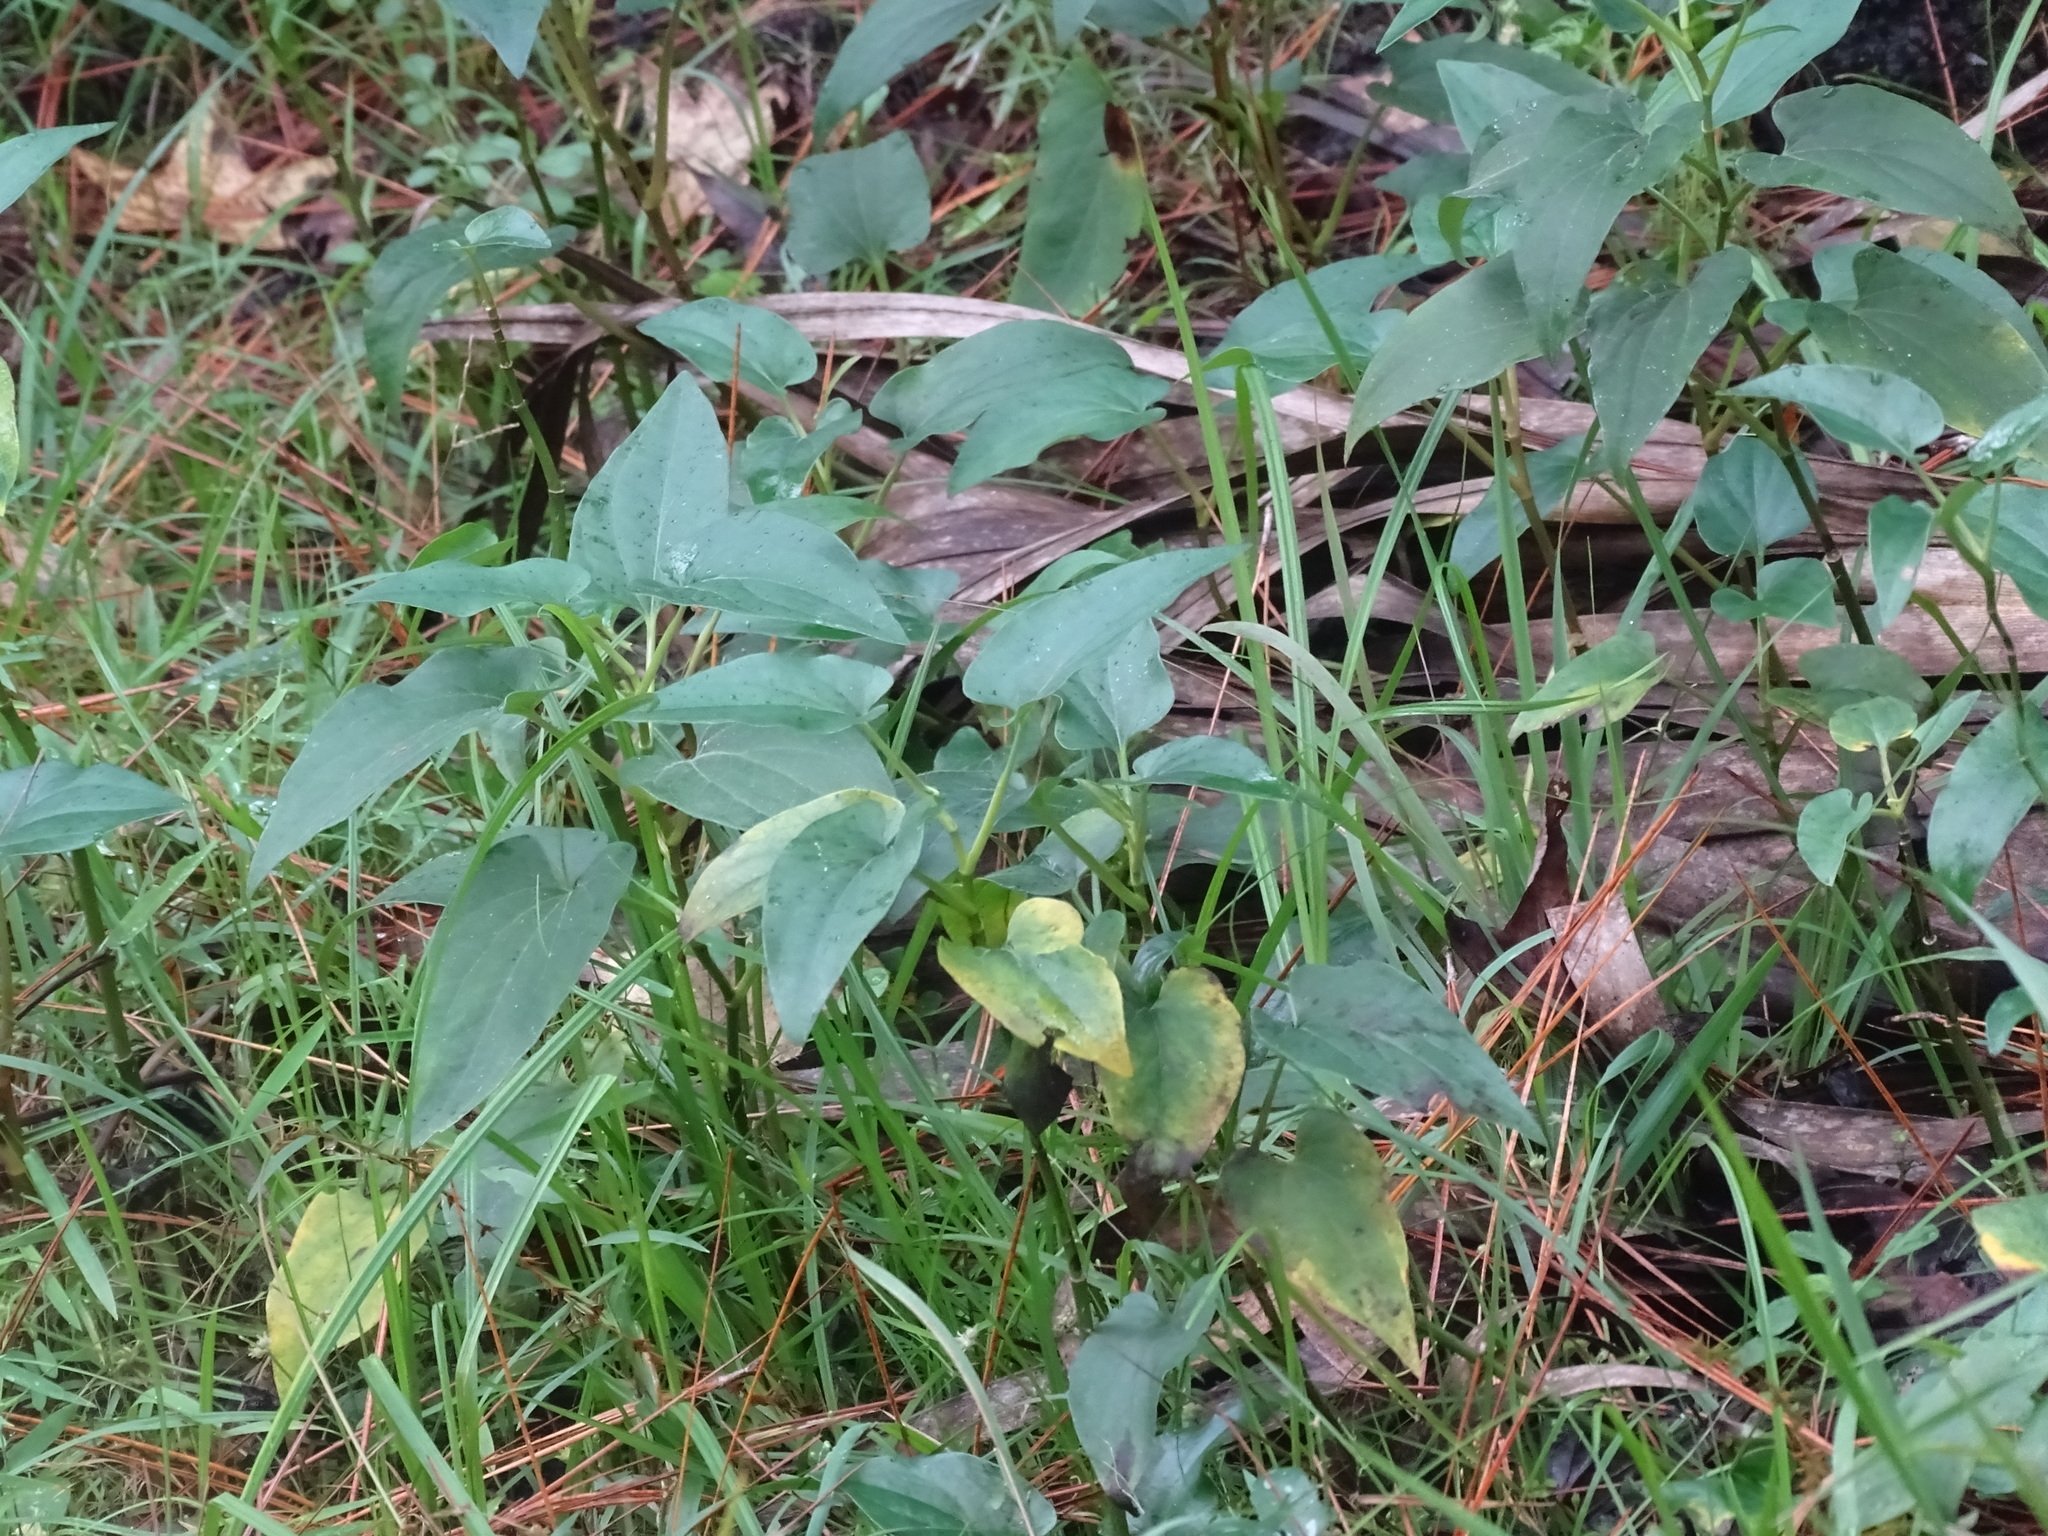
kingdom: Plantae
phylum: Tracheophyta
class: Magnoliopsida
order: Piperales
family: Saururaceae
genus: Saururus
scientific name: Saururus cernuus
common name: Lizard's-tail
